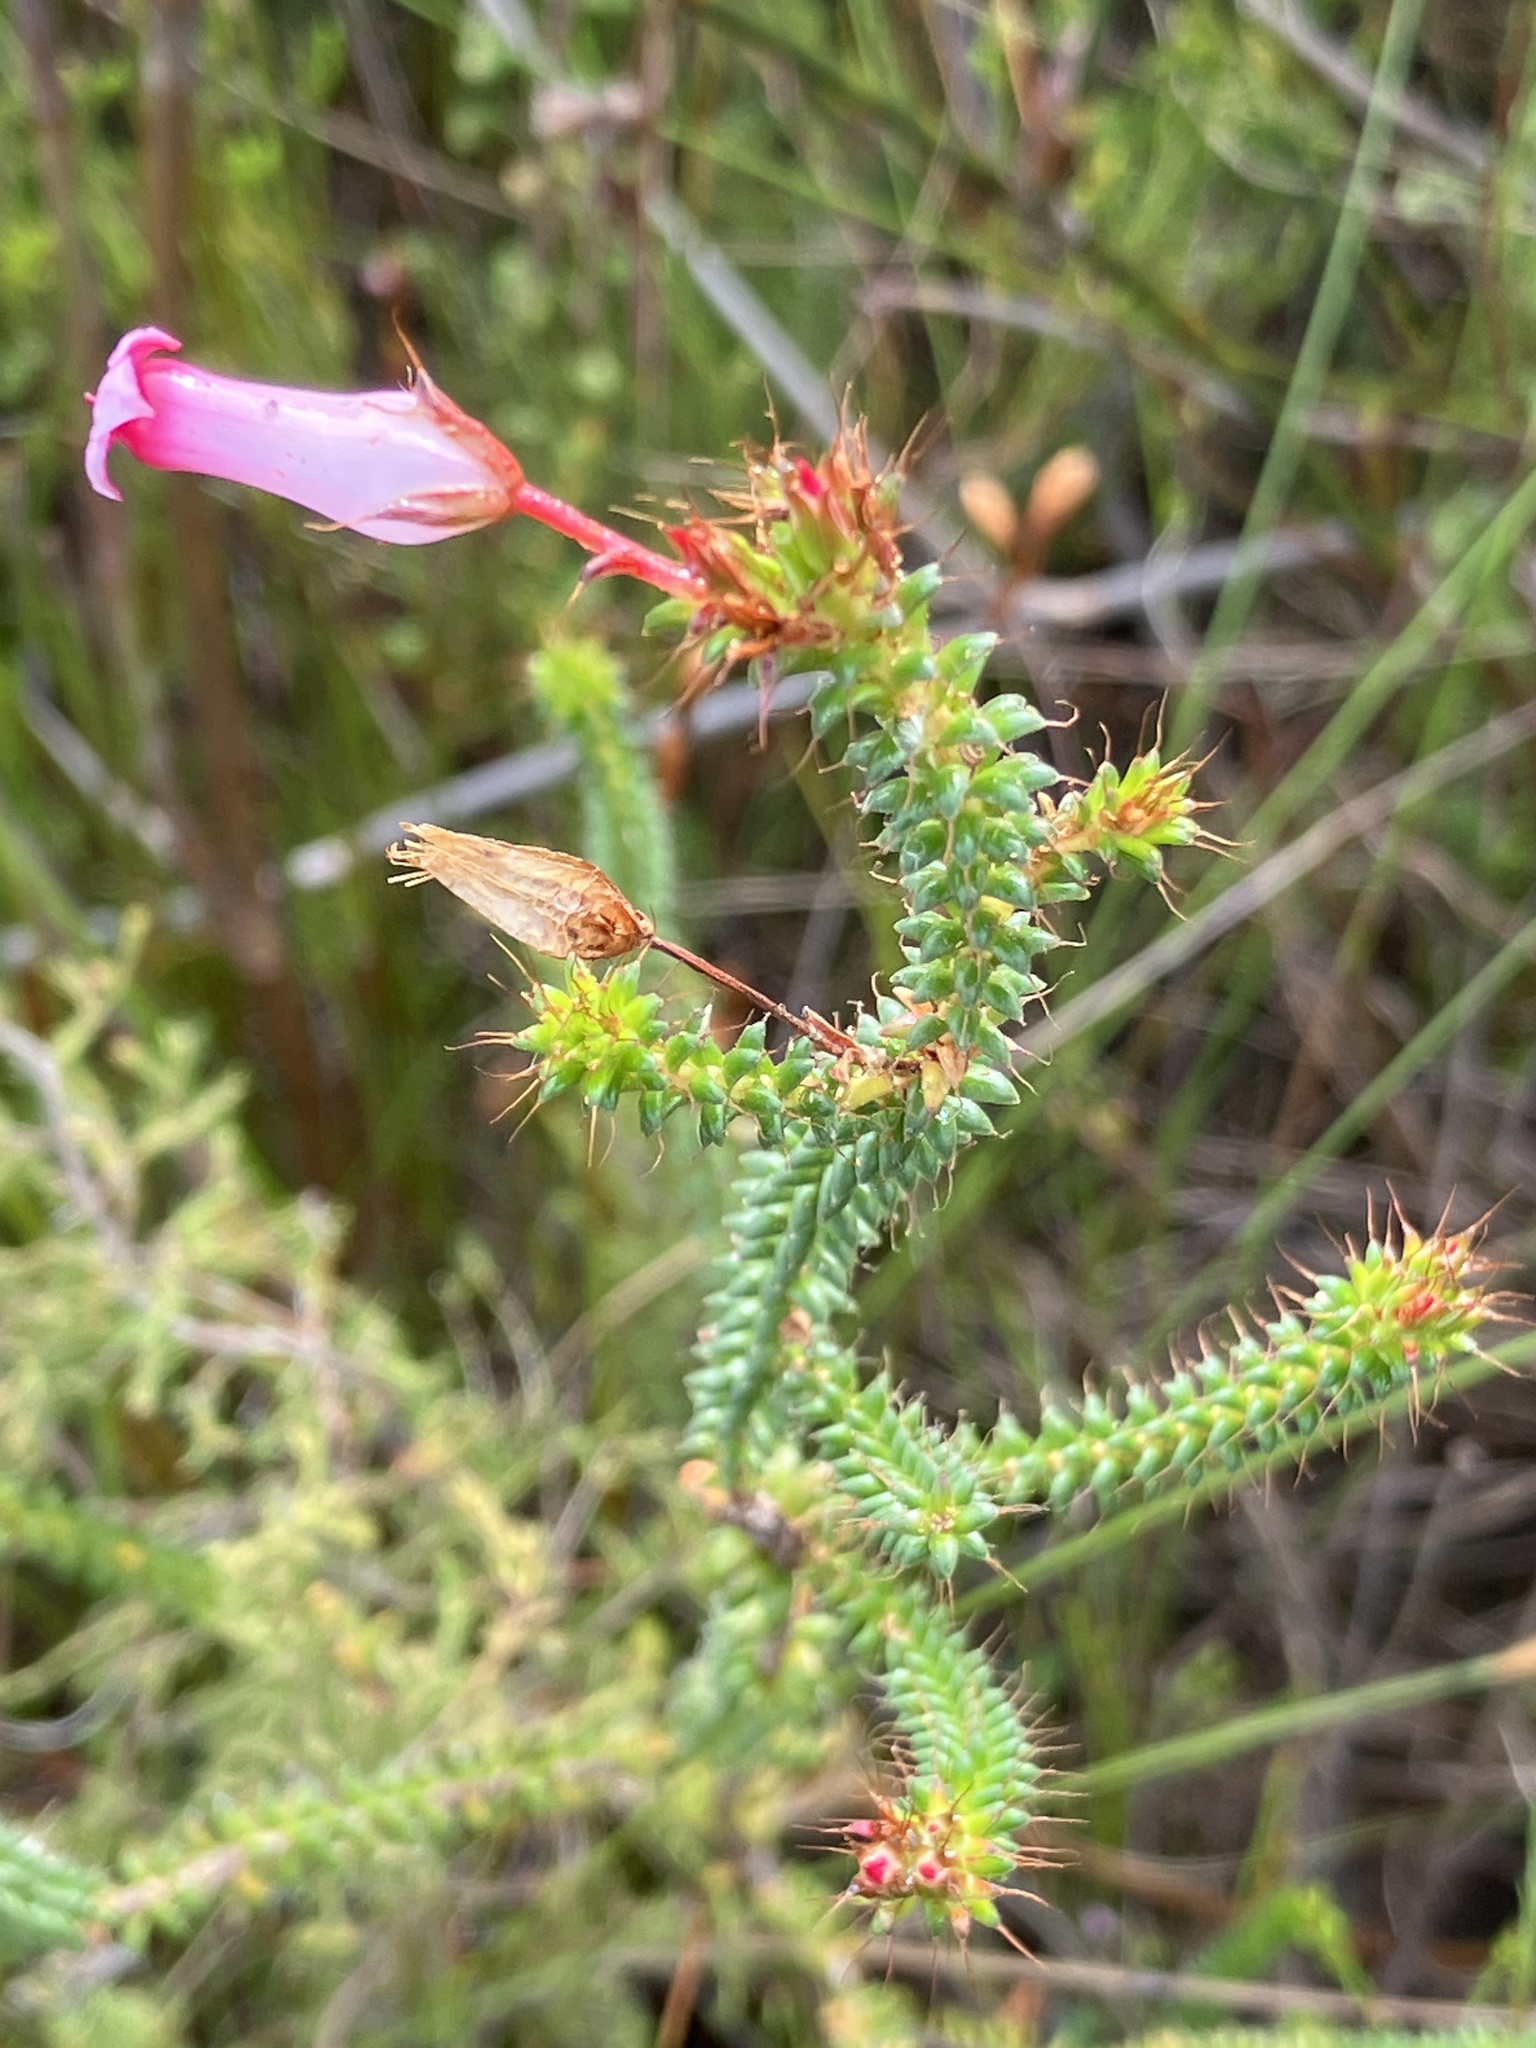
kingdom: Plantae
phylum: Tracheophyta
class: Magnoliopsida
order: Ericales
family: Ericaceae
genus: Erica
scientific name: Erica retorta
